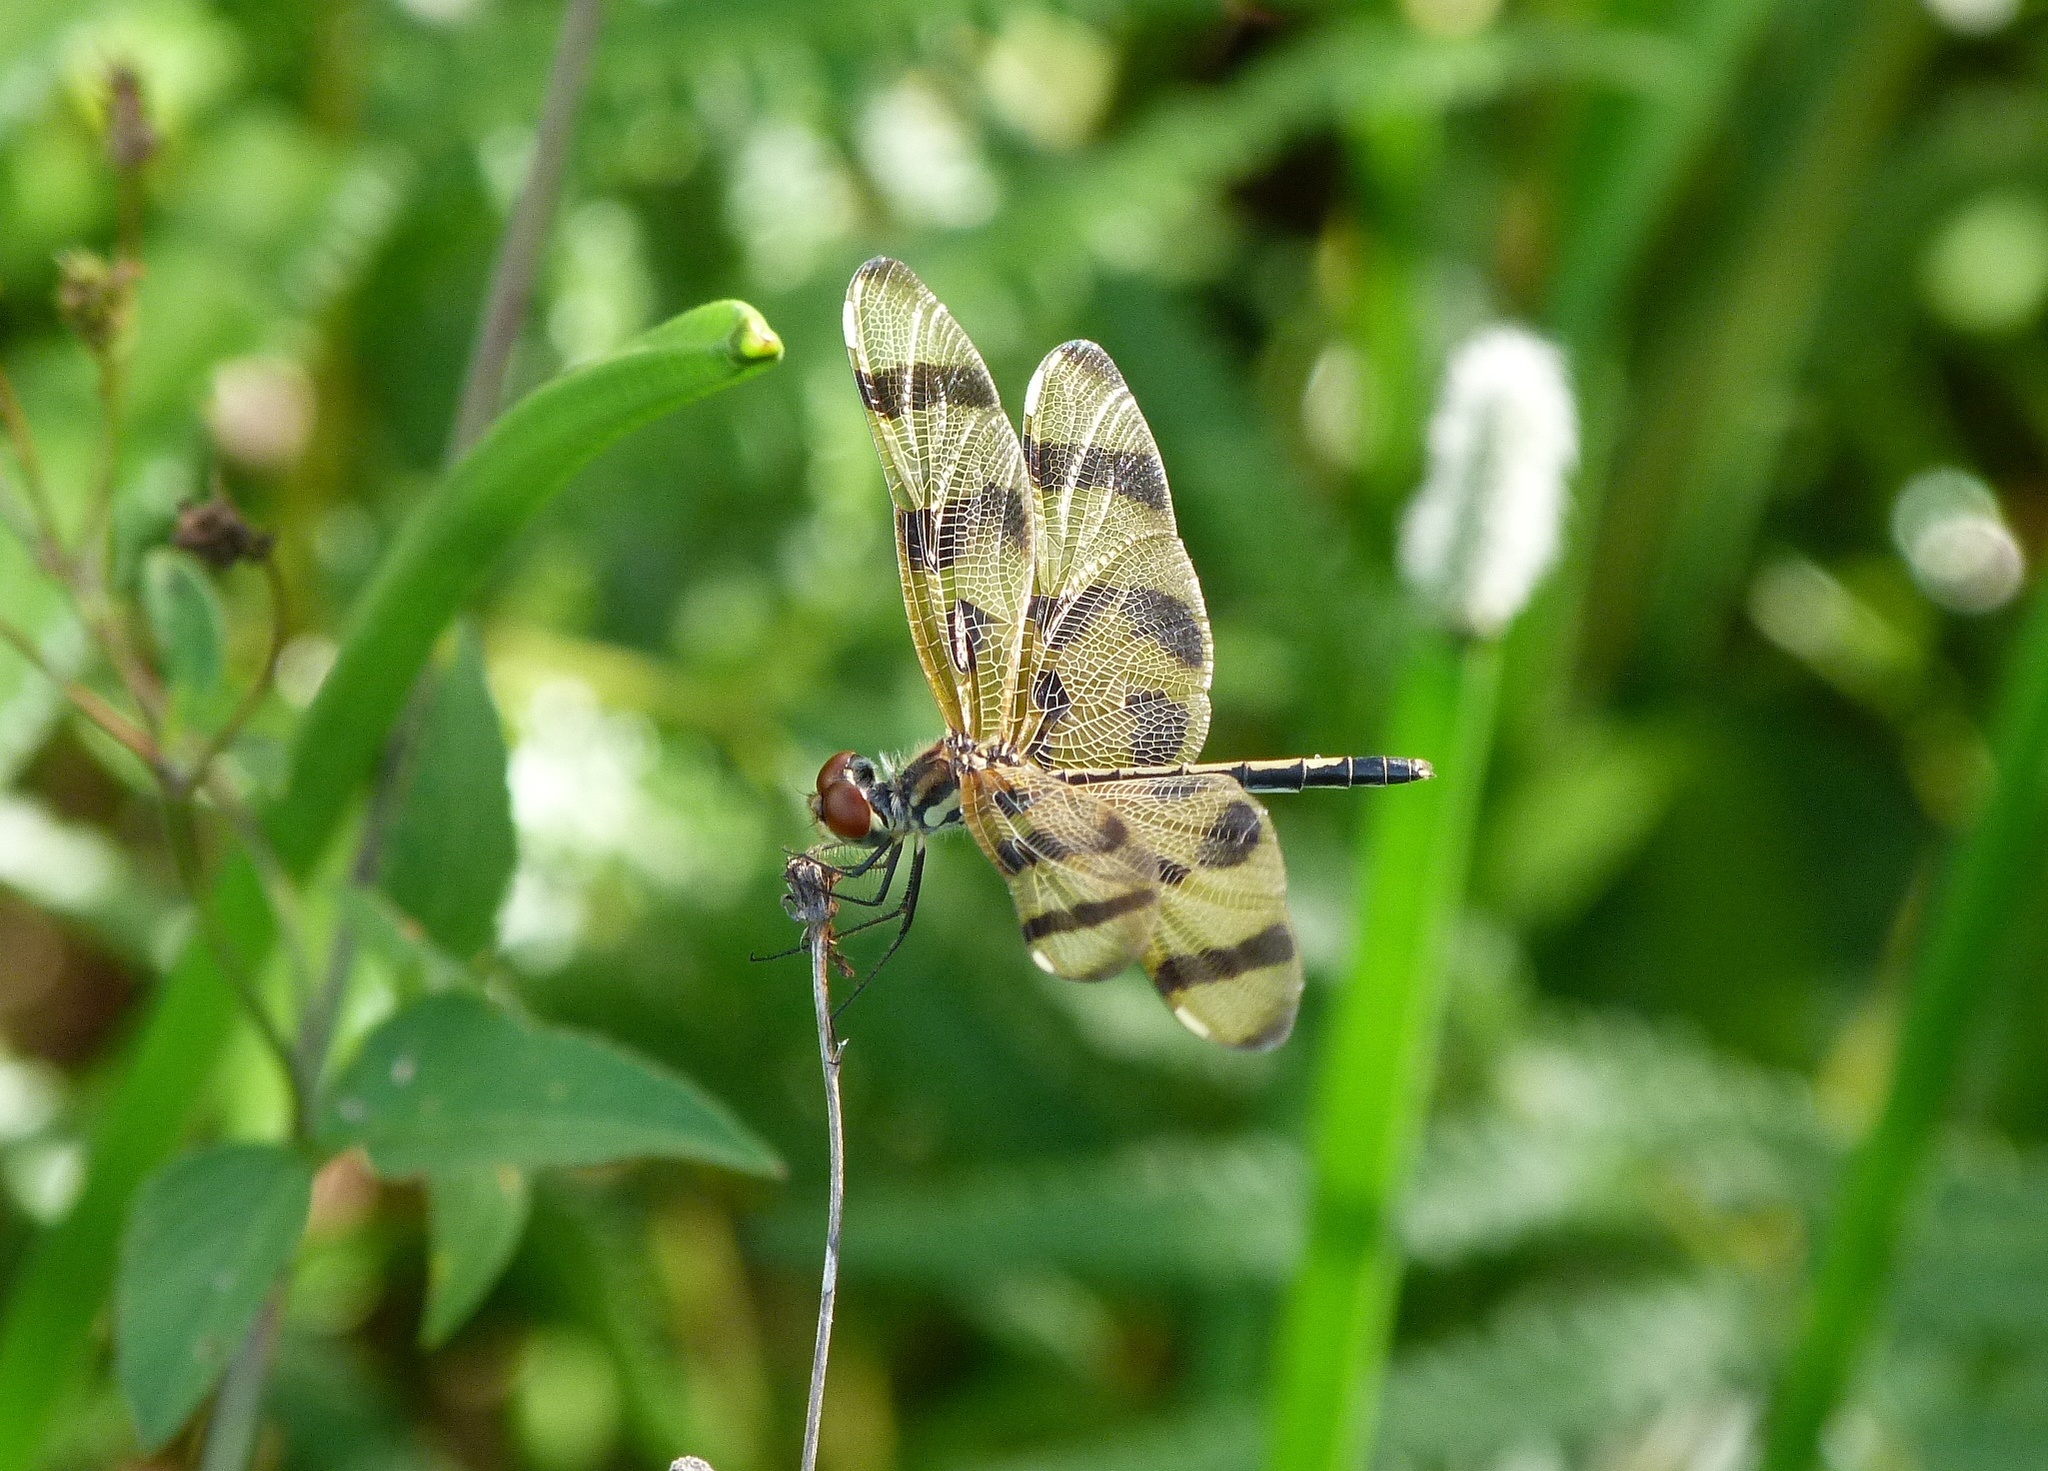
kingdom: Animalia
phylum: Arthropoda
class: Insecta
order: Odonata
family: Libellulidae
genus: Celithemis
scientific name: Celithemis eponina
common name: Halloween pennant
